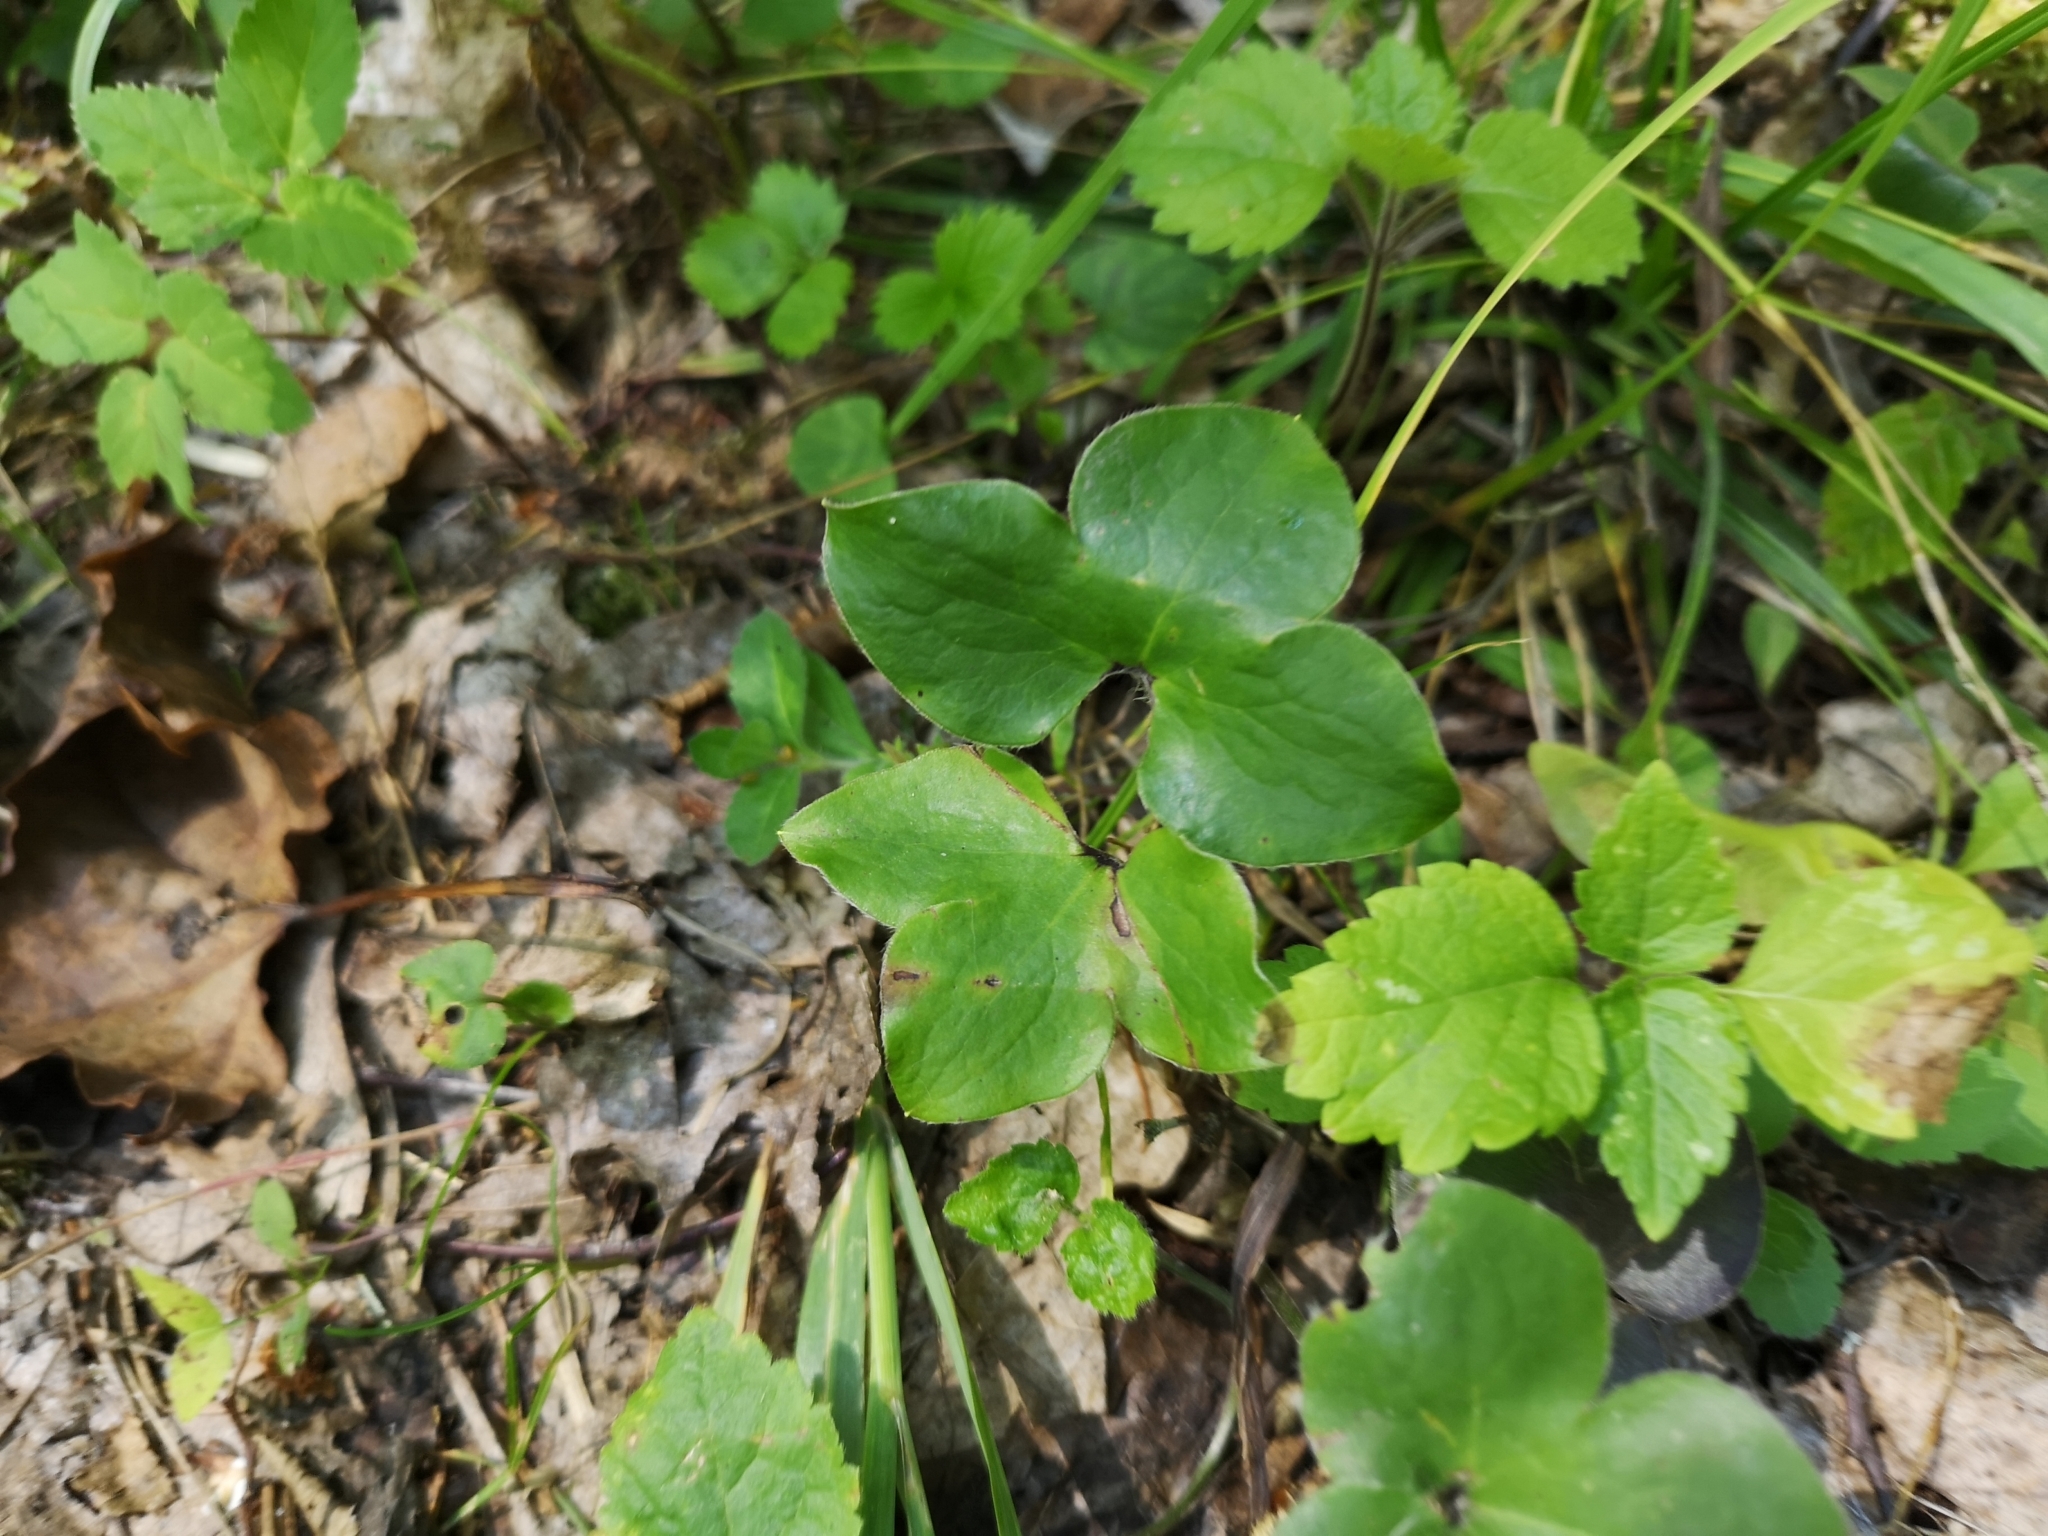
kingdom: Plantae
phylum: Tracheophyta
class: Magnoliopsida
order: Ranunculales
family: Ranunculaceae
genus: Hepatica
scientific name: Hepatica nobilis
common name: Liverleaf
